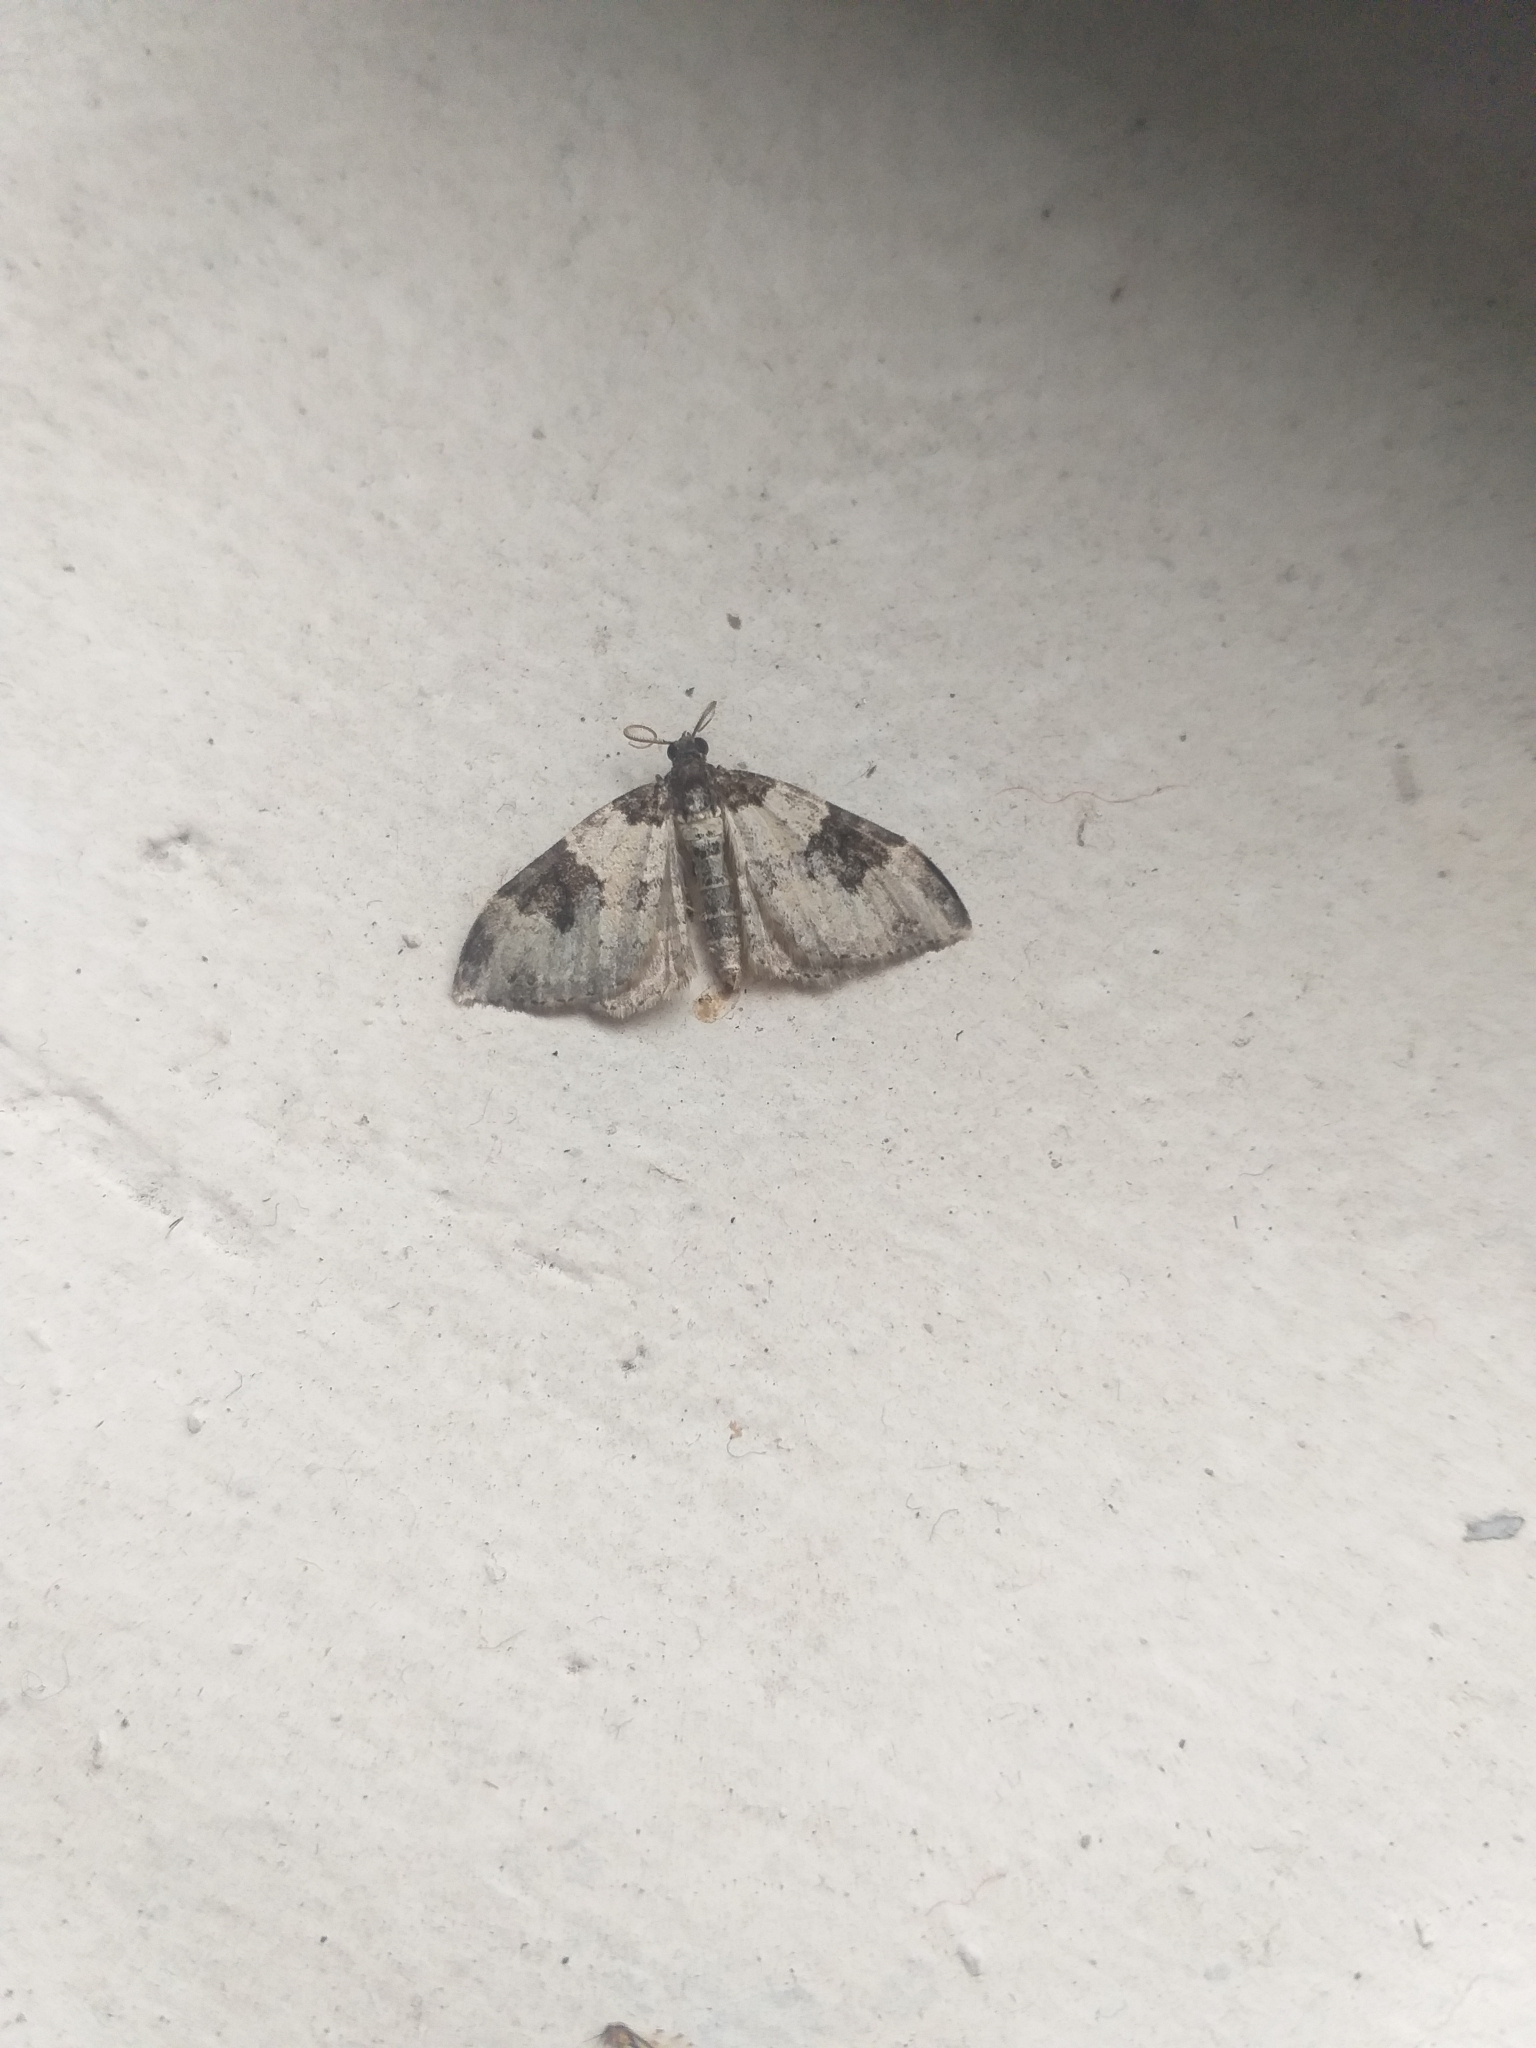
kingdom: Animalia
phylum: Arthropoda
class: Insecta
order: Lepidoptera
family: Geometridae
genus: Xanthorhoe
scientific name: Xanthorhoe fluctuata
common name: Garden carpet
